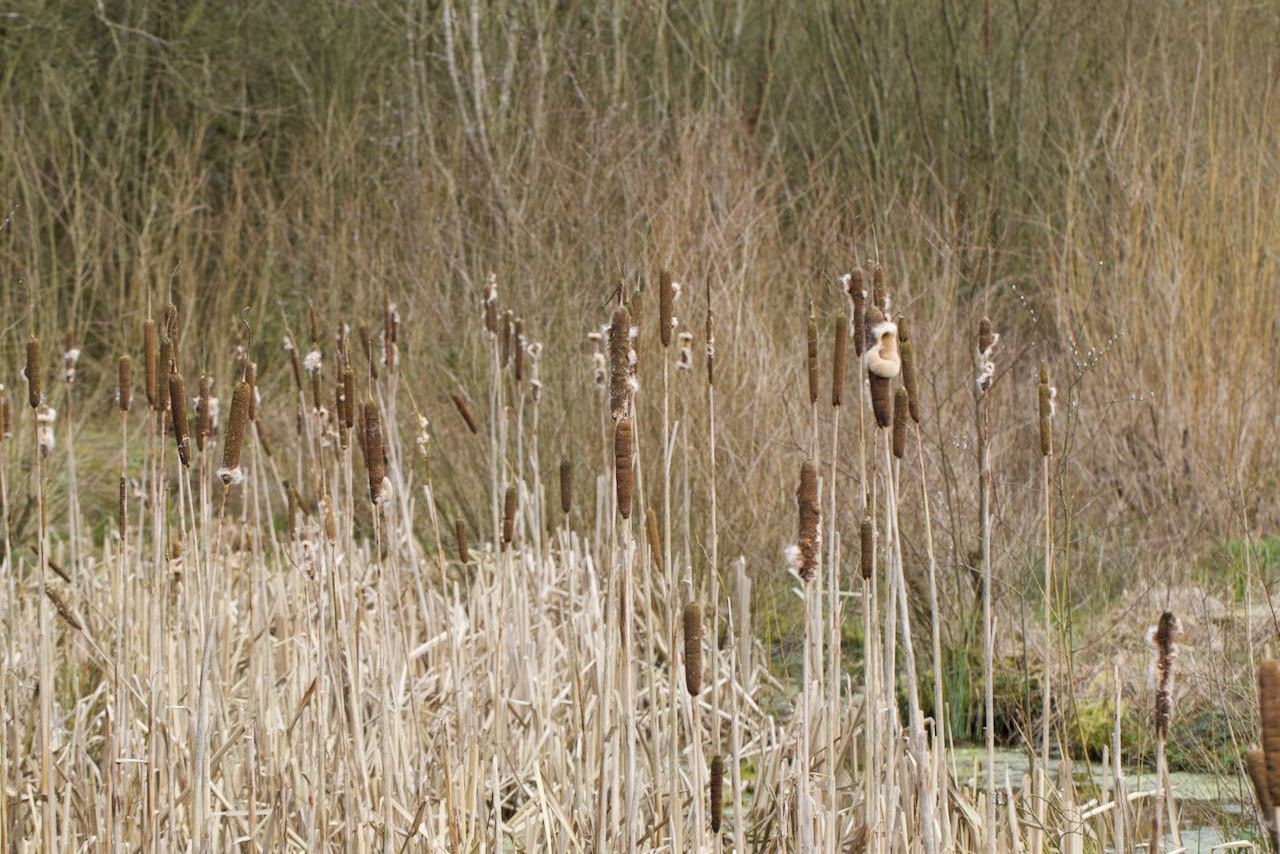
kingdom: Plantae
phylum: Tracheophyta
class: Liliopsida
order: Poales
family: Typhaceae
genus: Typha
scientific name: Typha latifolia
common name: Broadleaf cattail
